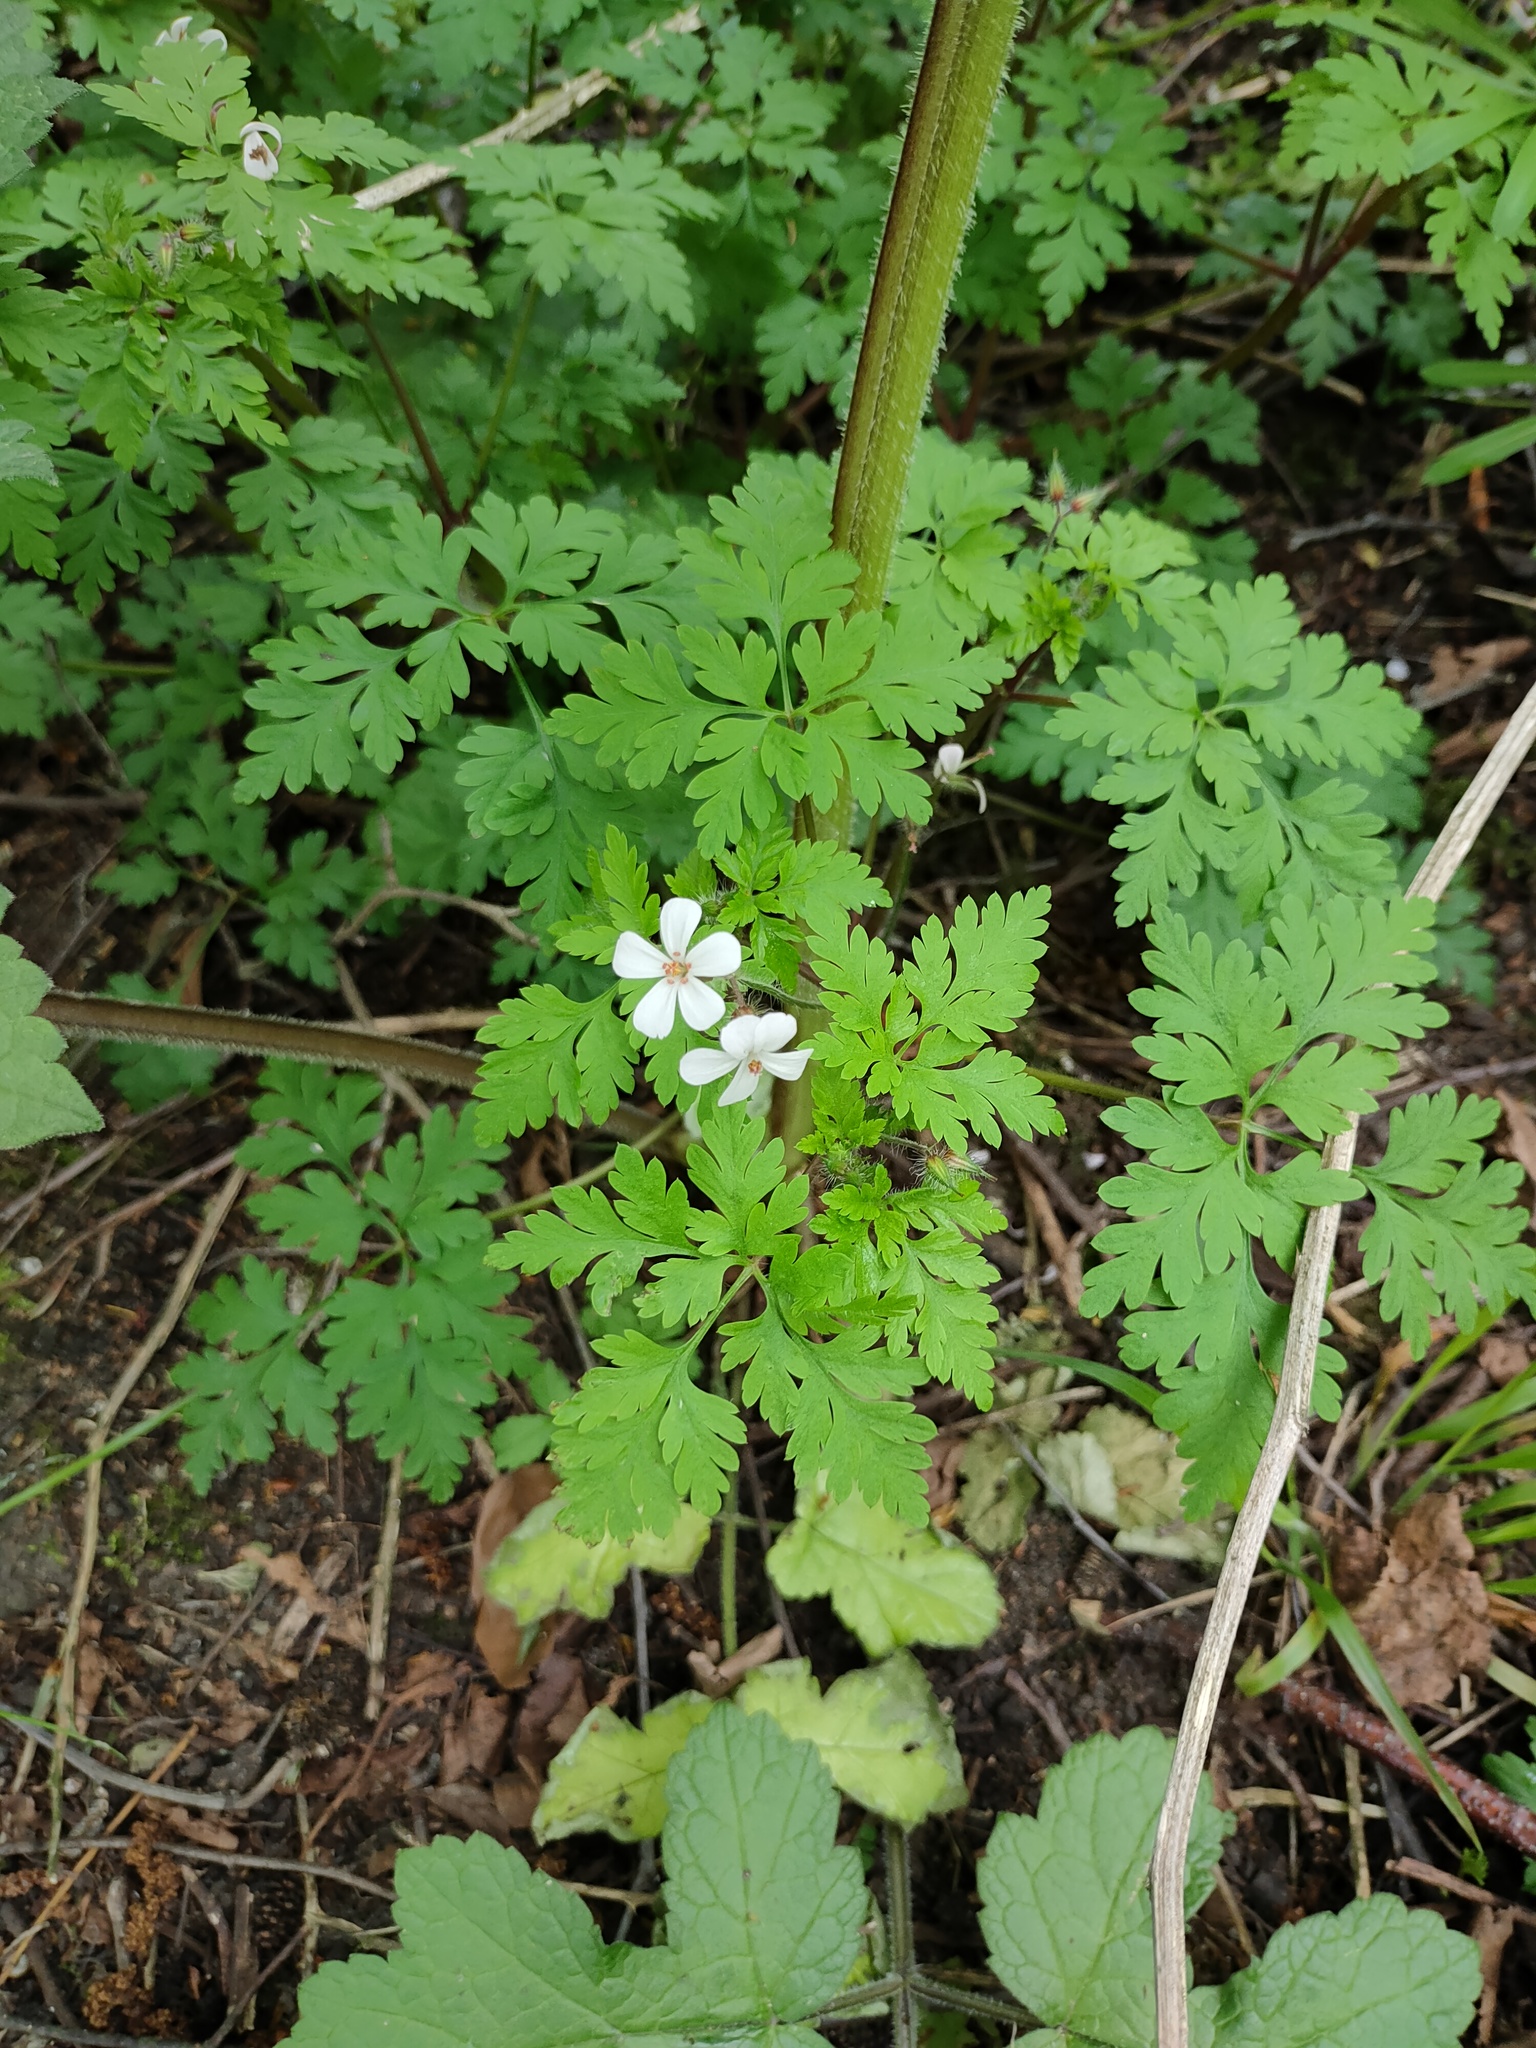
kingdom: Plantae
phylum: Tracheophyta
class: Magnoliopsida
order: Geraniales
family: Geraniaceae
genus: Geranium
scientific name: Geranium robertianum
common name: Herb-robert
